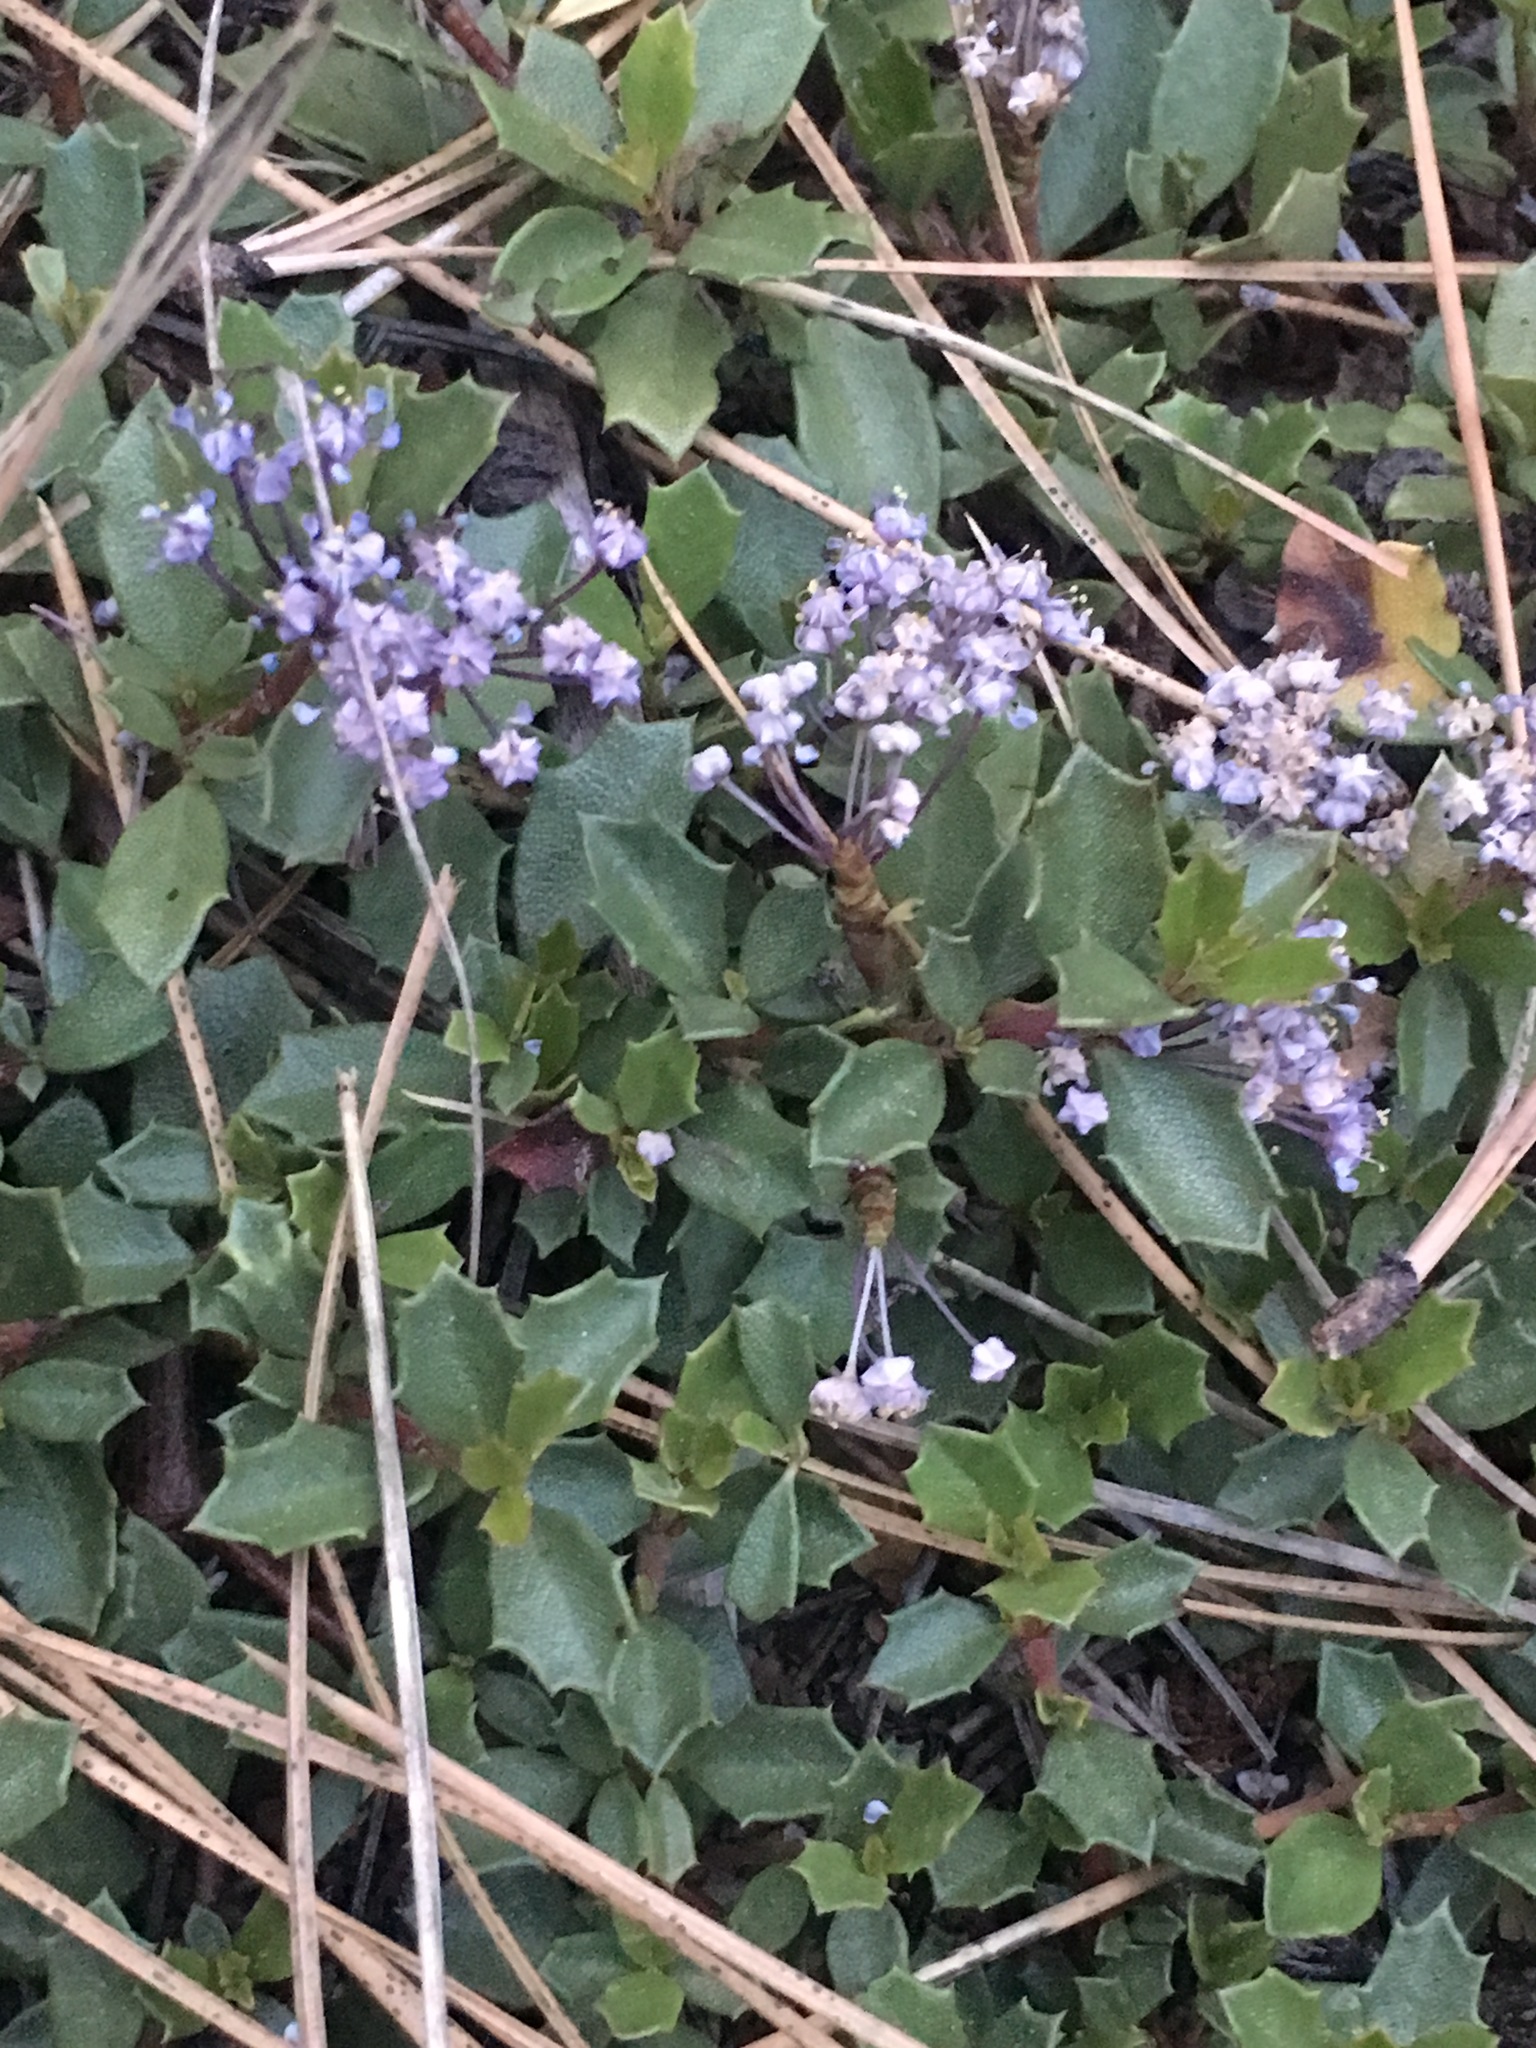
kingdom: Plantae
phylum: Tracheophyta
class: Magnoliopsida
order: Rosales
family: Rhamnaceae
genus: Ceanothus
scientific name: Ceanothus prostratus
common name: Mahala-mat
